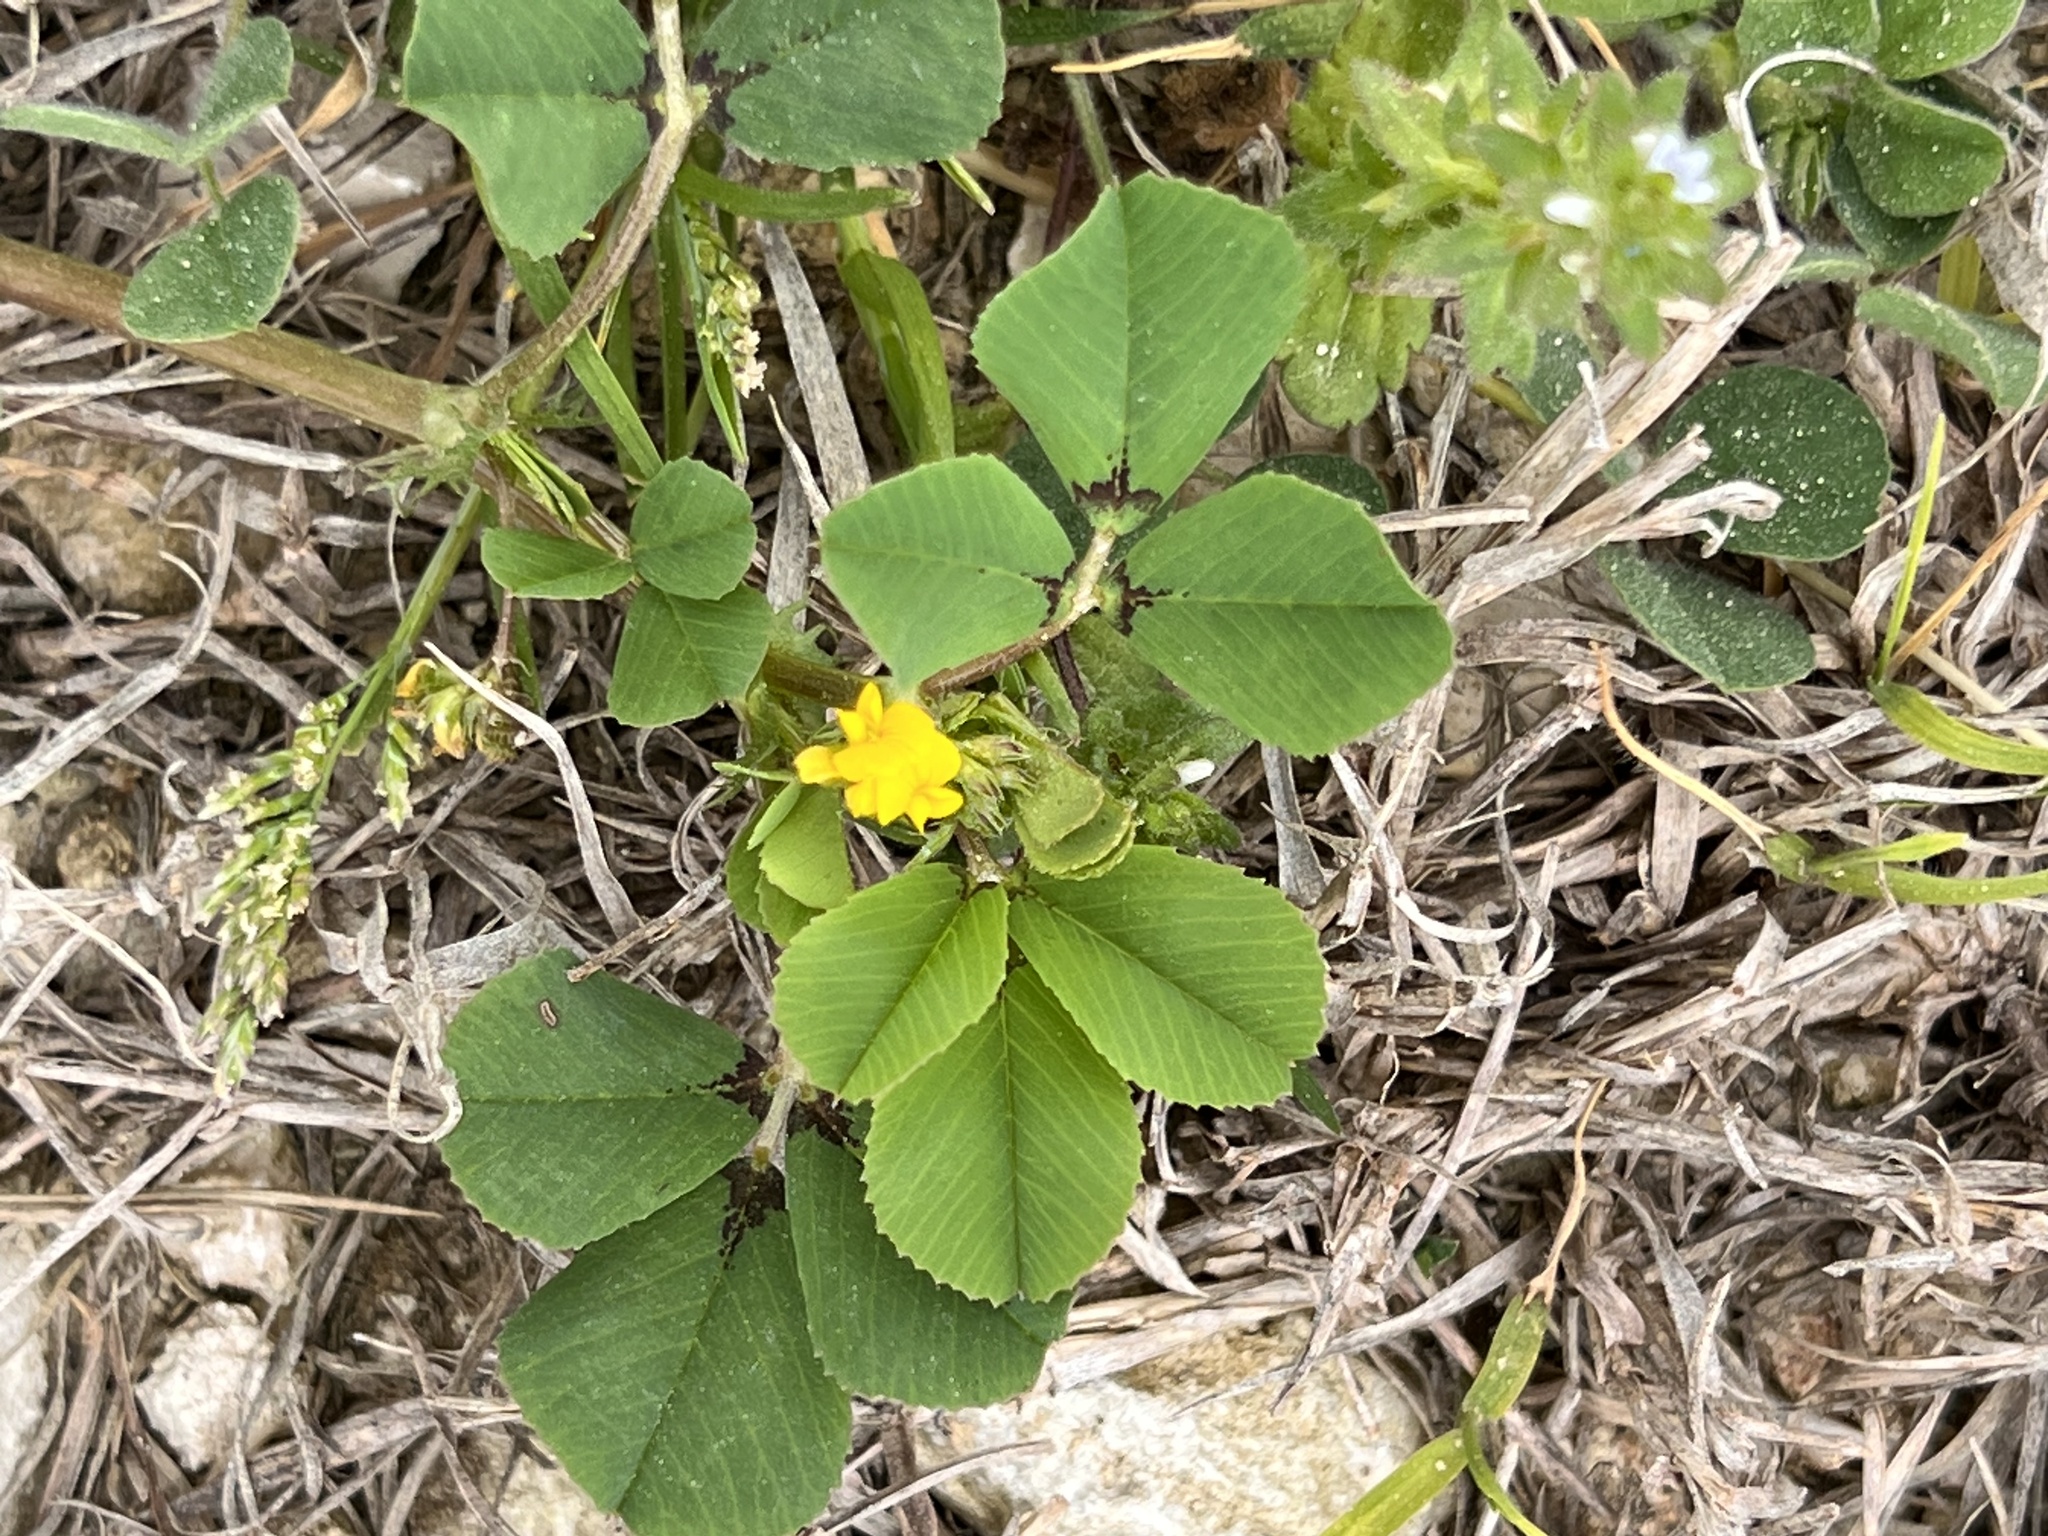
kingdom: Plantae
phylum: Tracheophyta
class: Magnoliopsida
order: Fabales
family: Fabaceae
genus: Medicago
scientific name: Medicago polymorpha
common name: Burclover
